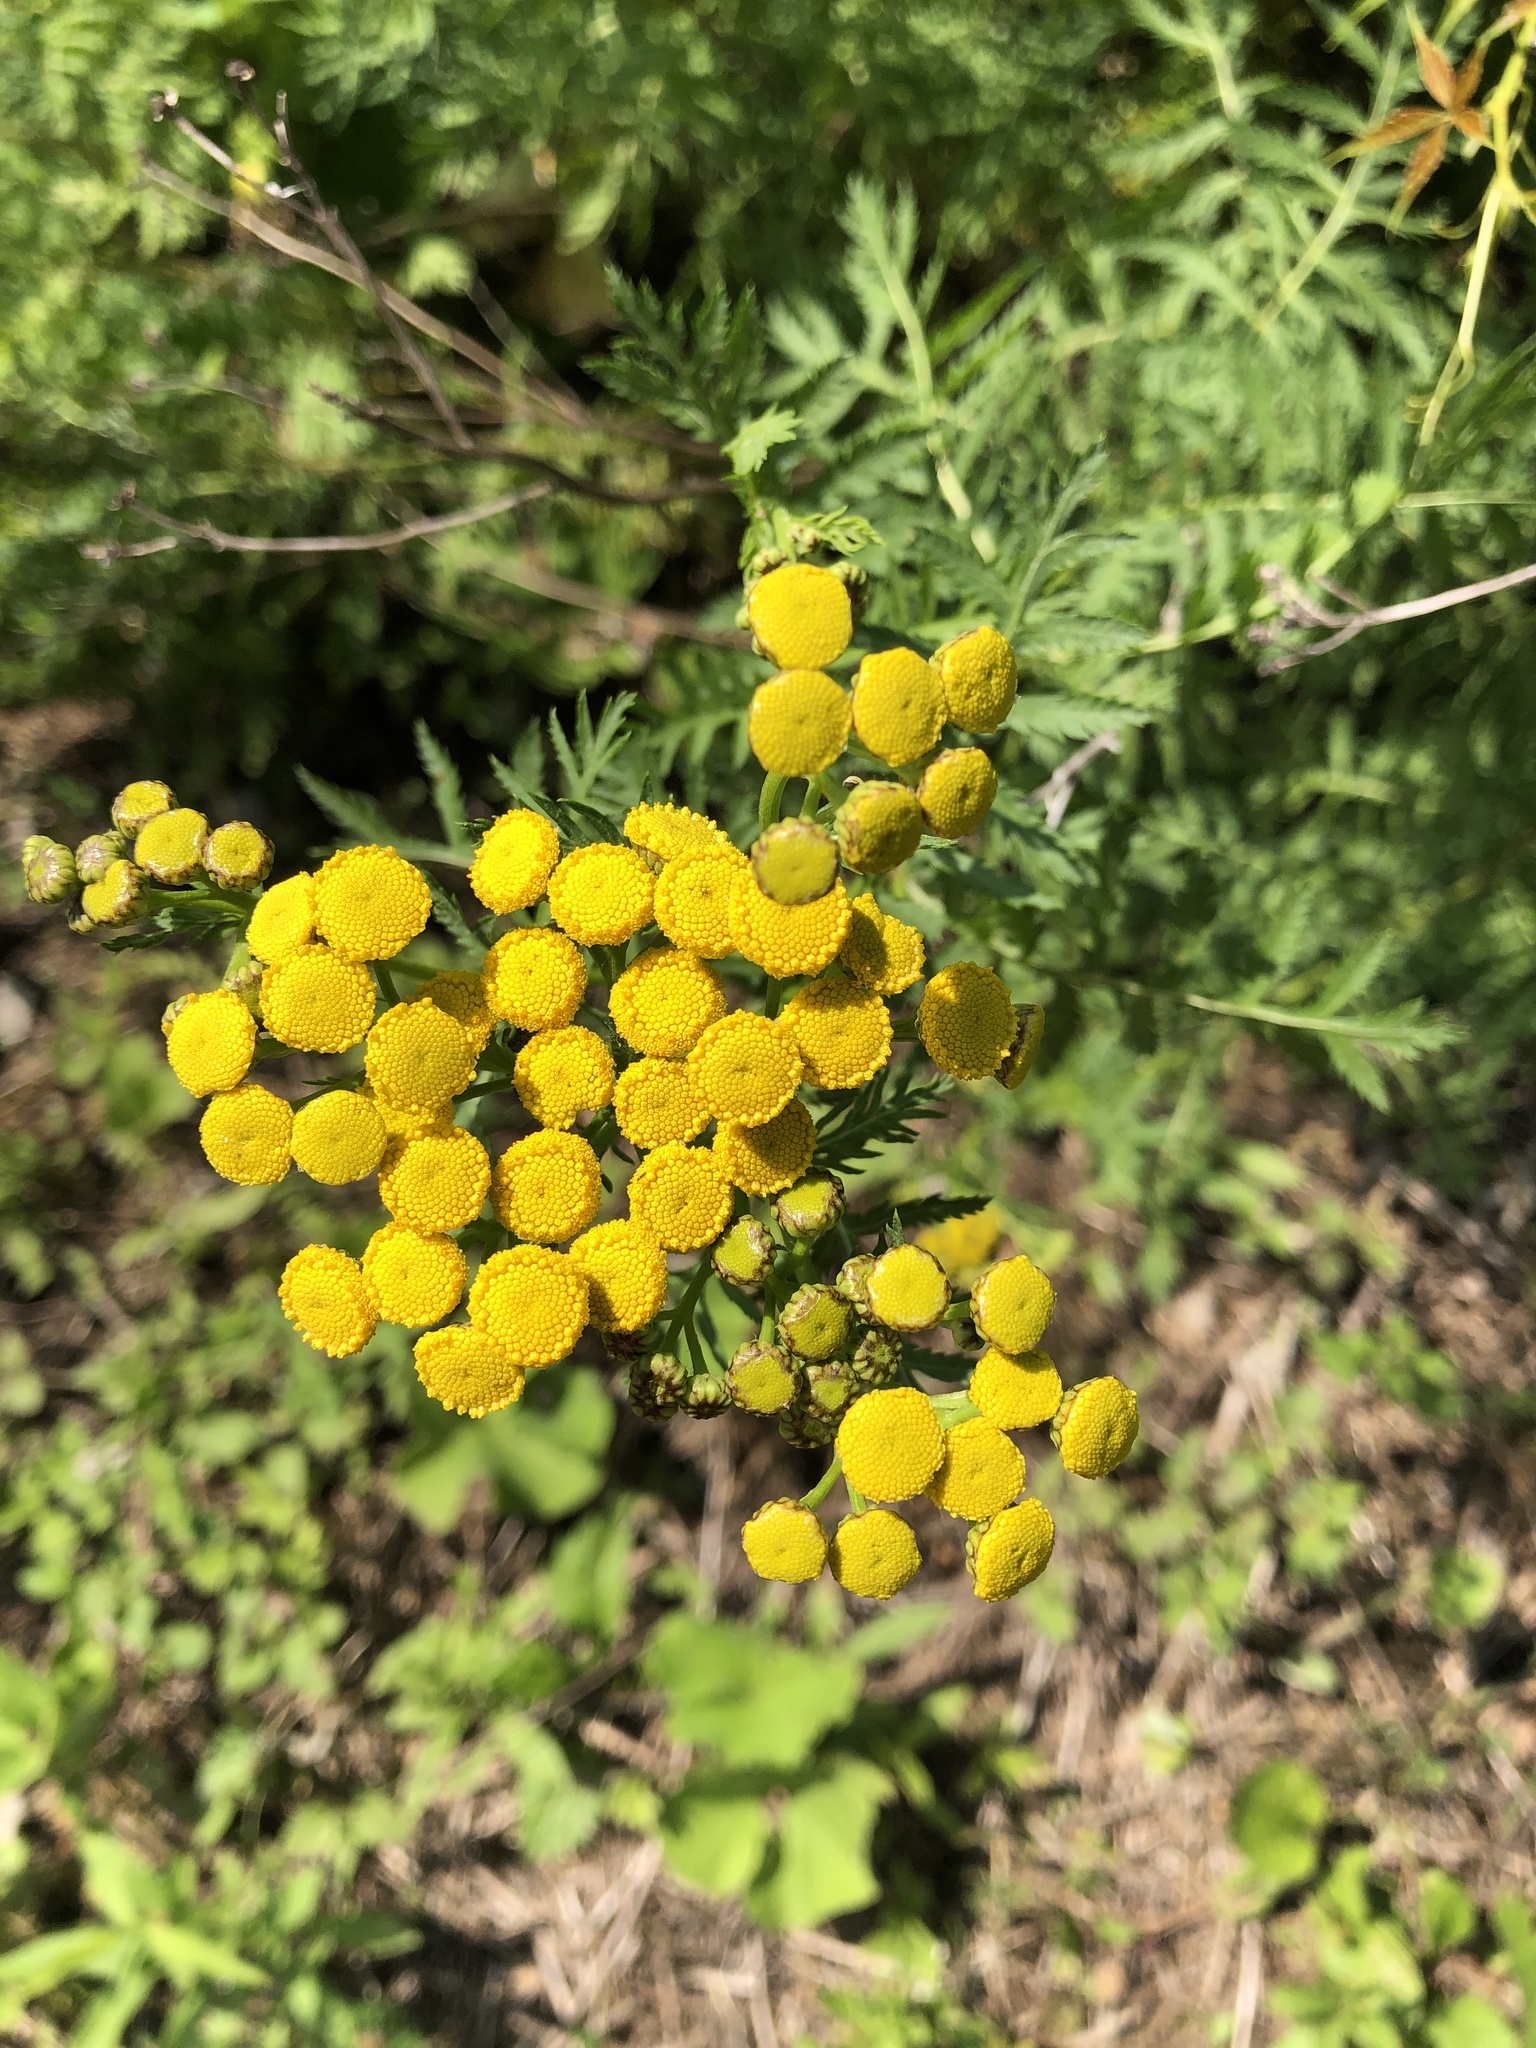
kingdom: Plantae
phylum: Tracheophyta
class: Magnoliopsida
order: Asterales
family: Asteraceae
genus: Tanacetum
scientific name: Tanacetum vulgare
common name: Common tansy
